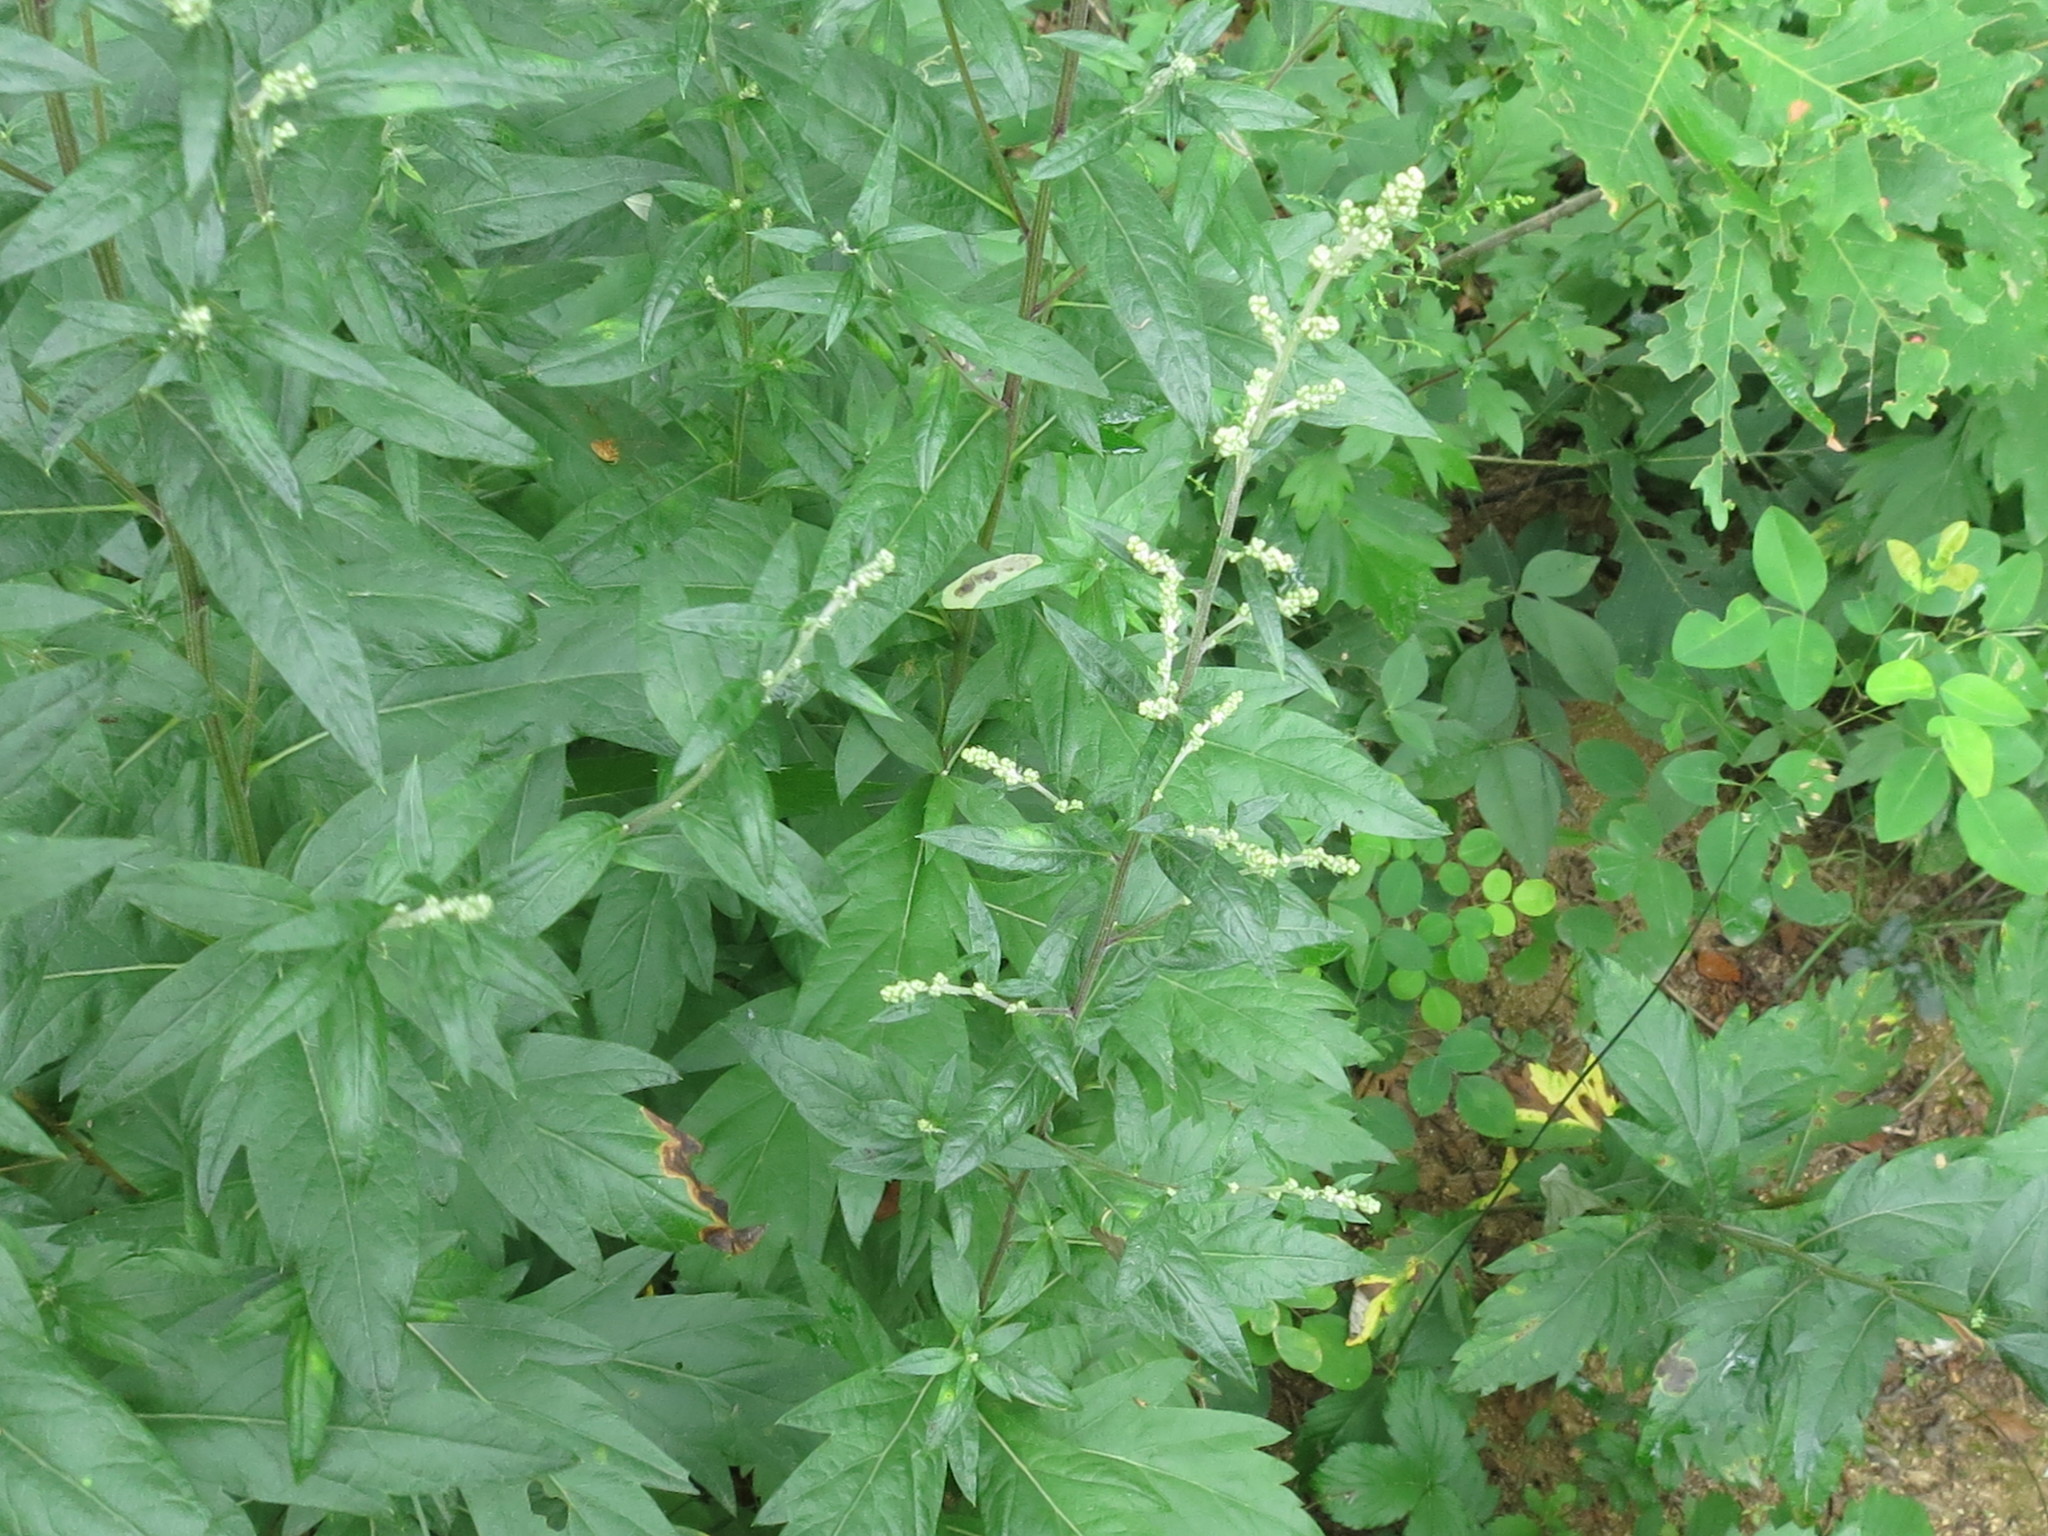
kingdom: Plantae
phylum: Tracheophyta
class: Magnoliopsida
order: Asterales
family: Asteraceae
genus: Artemisia
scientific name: Artemisia stolonifera
